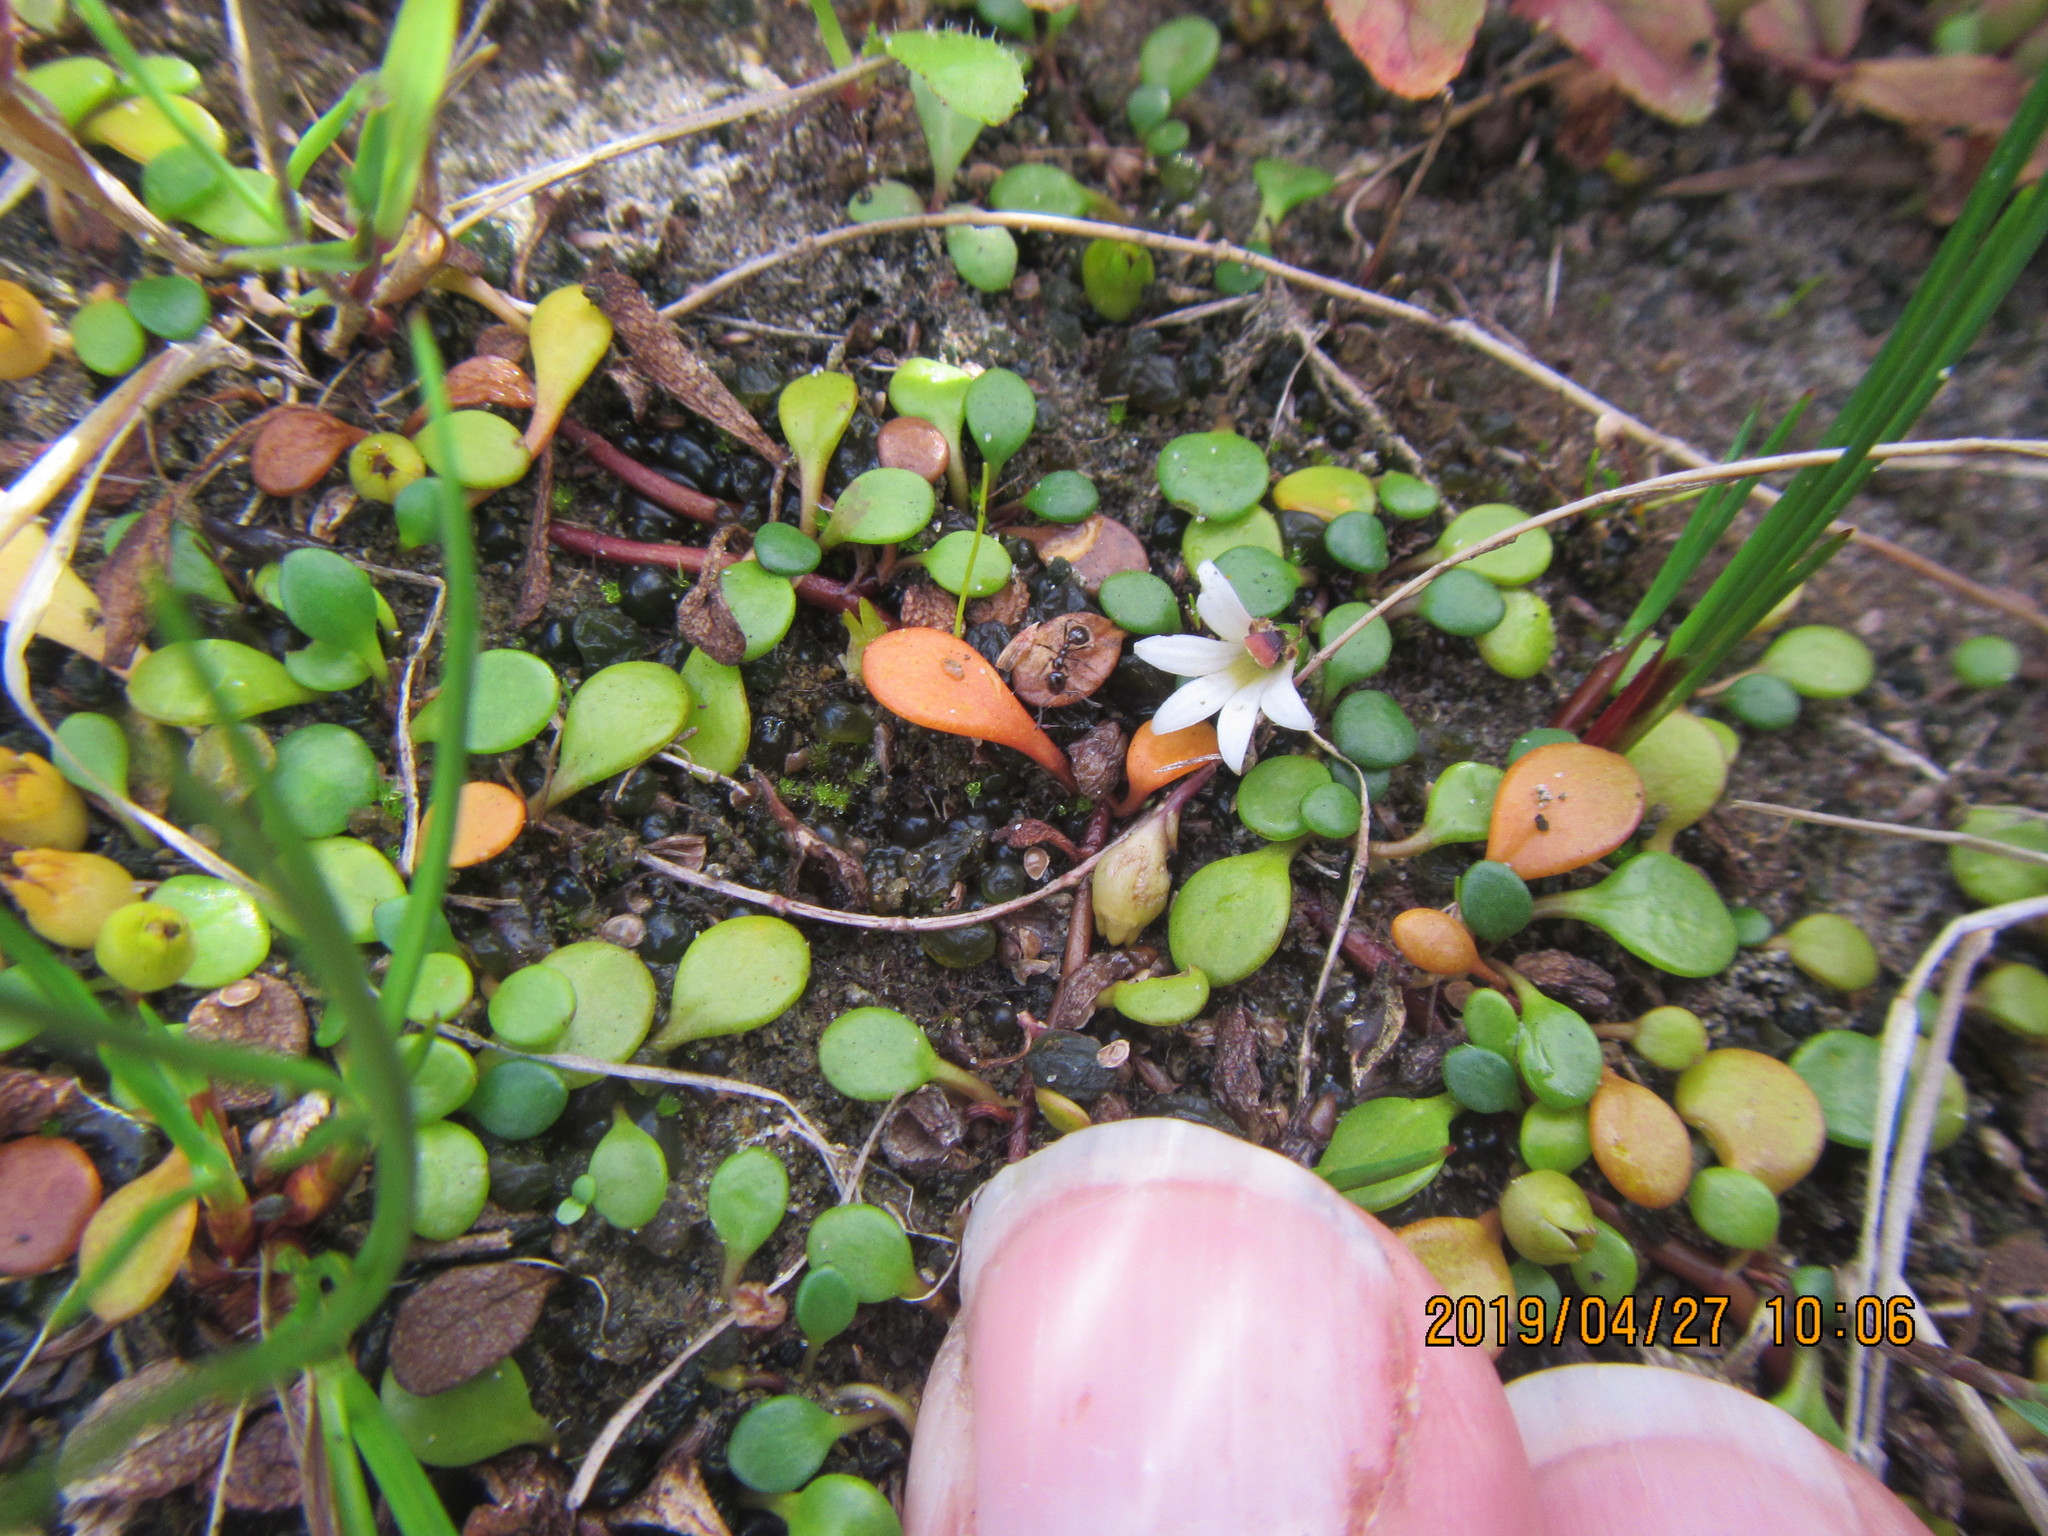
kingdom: Plantae
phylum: Tracheophyta
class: Magnoliopsida
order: Asterales
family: Goodeniaceae
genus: Goodenia
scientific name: Goodenia heenanii
